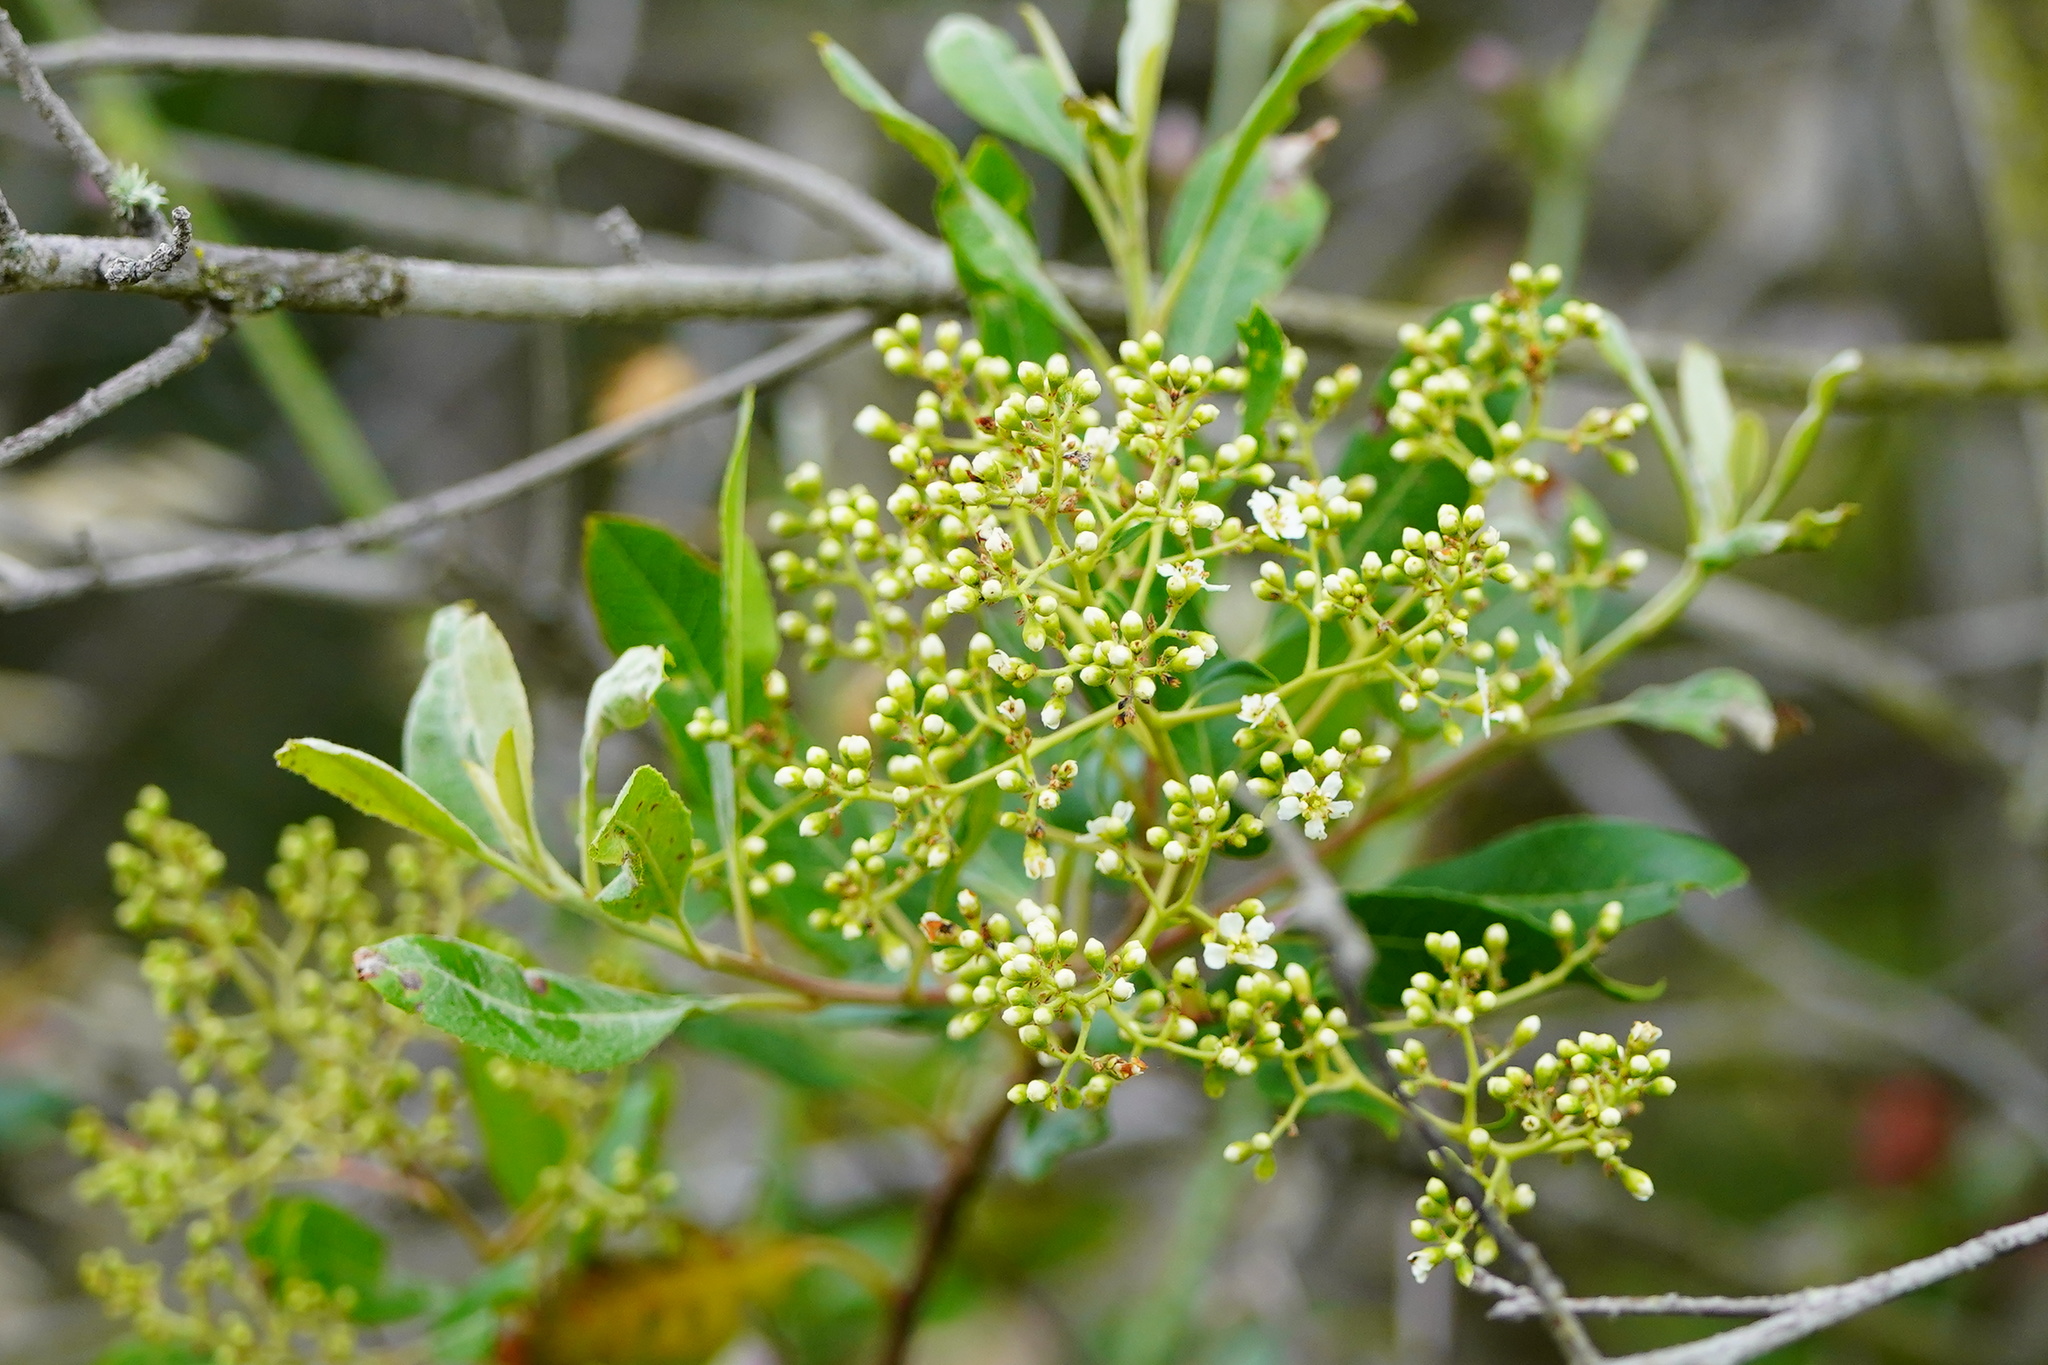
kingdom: Plantae
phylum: Tracheophyta
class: Magnoliopsida
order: Rosales
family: Rosaceae
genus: Heteromeles
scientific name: Heteromeles arbutifolia
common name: California-holly
